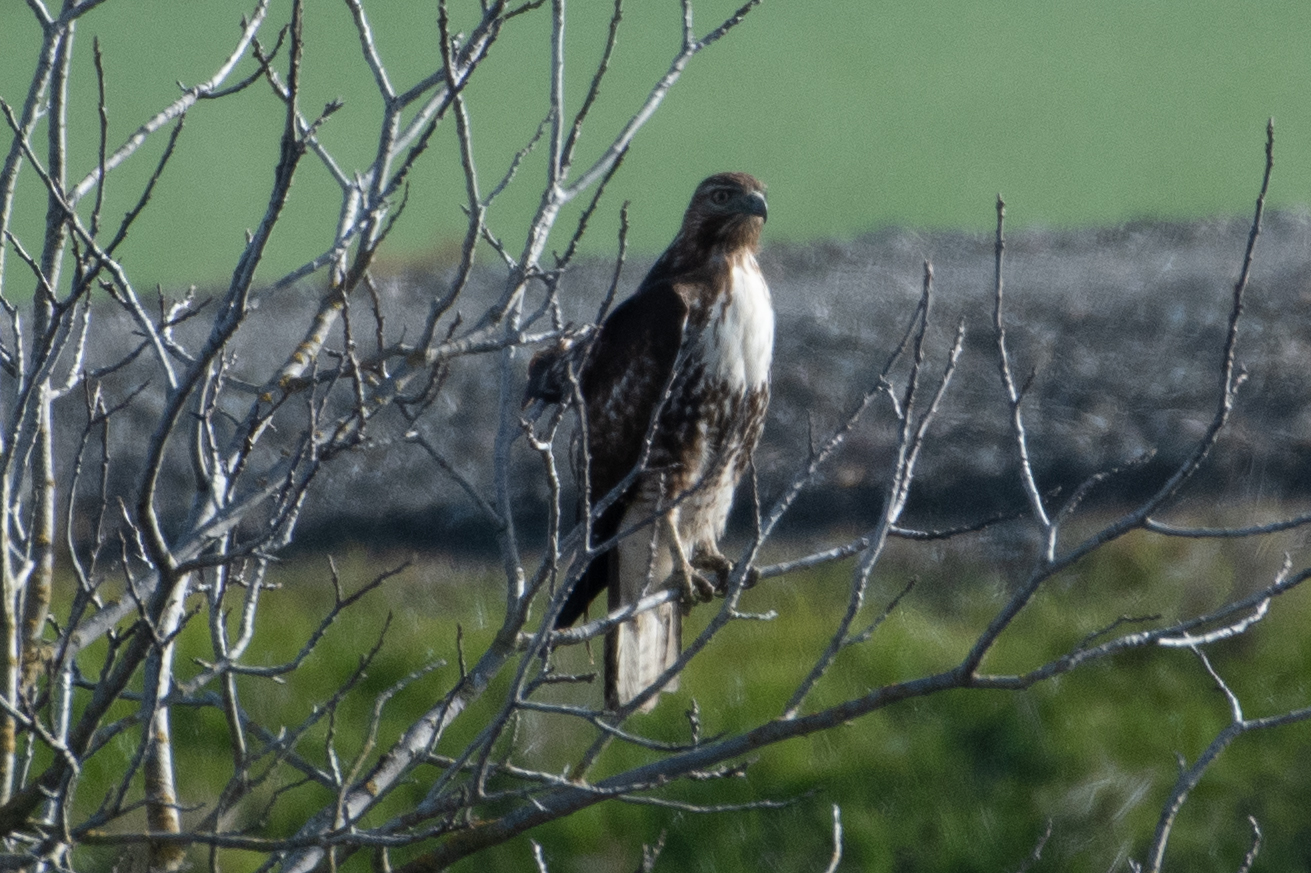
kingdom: Animalia
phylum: Chordata
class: Aves
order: Accipitriformes
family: Accipitridae
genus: Buteo
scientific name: Buteo jamaicensis
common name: Red-tailed hawk
